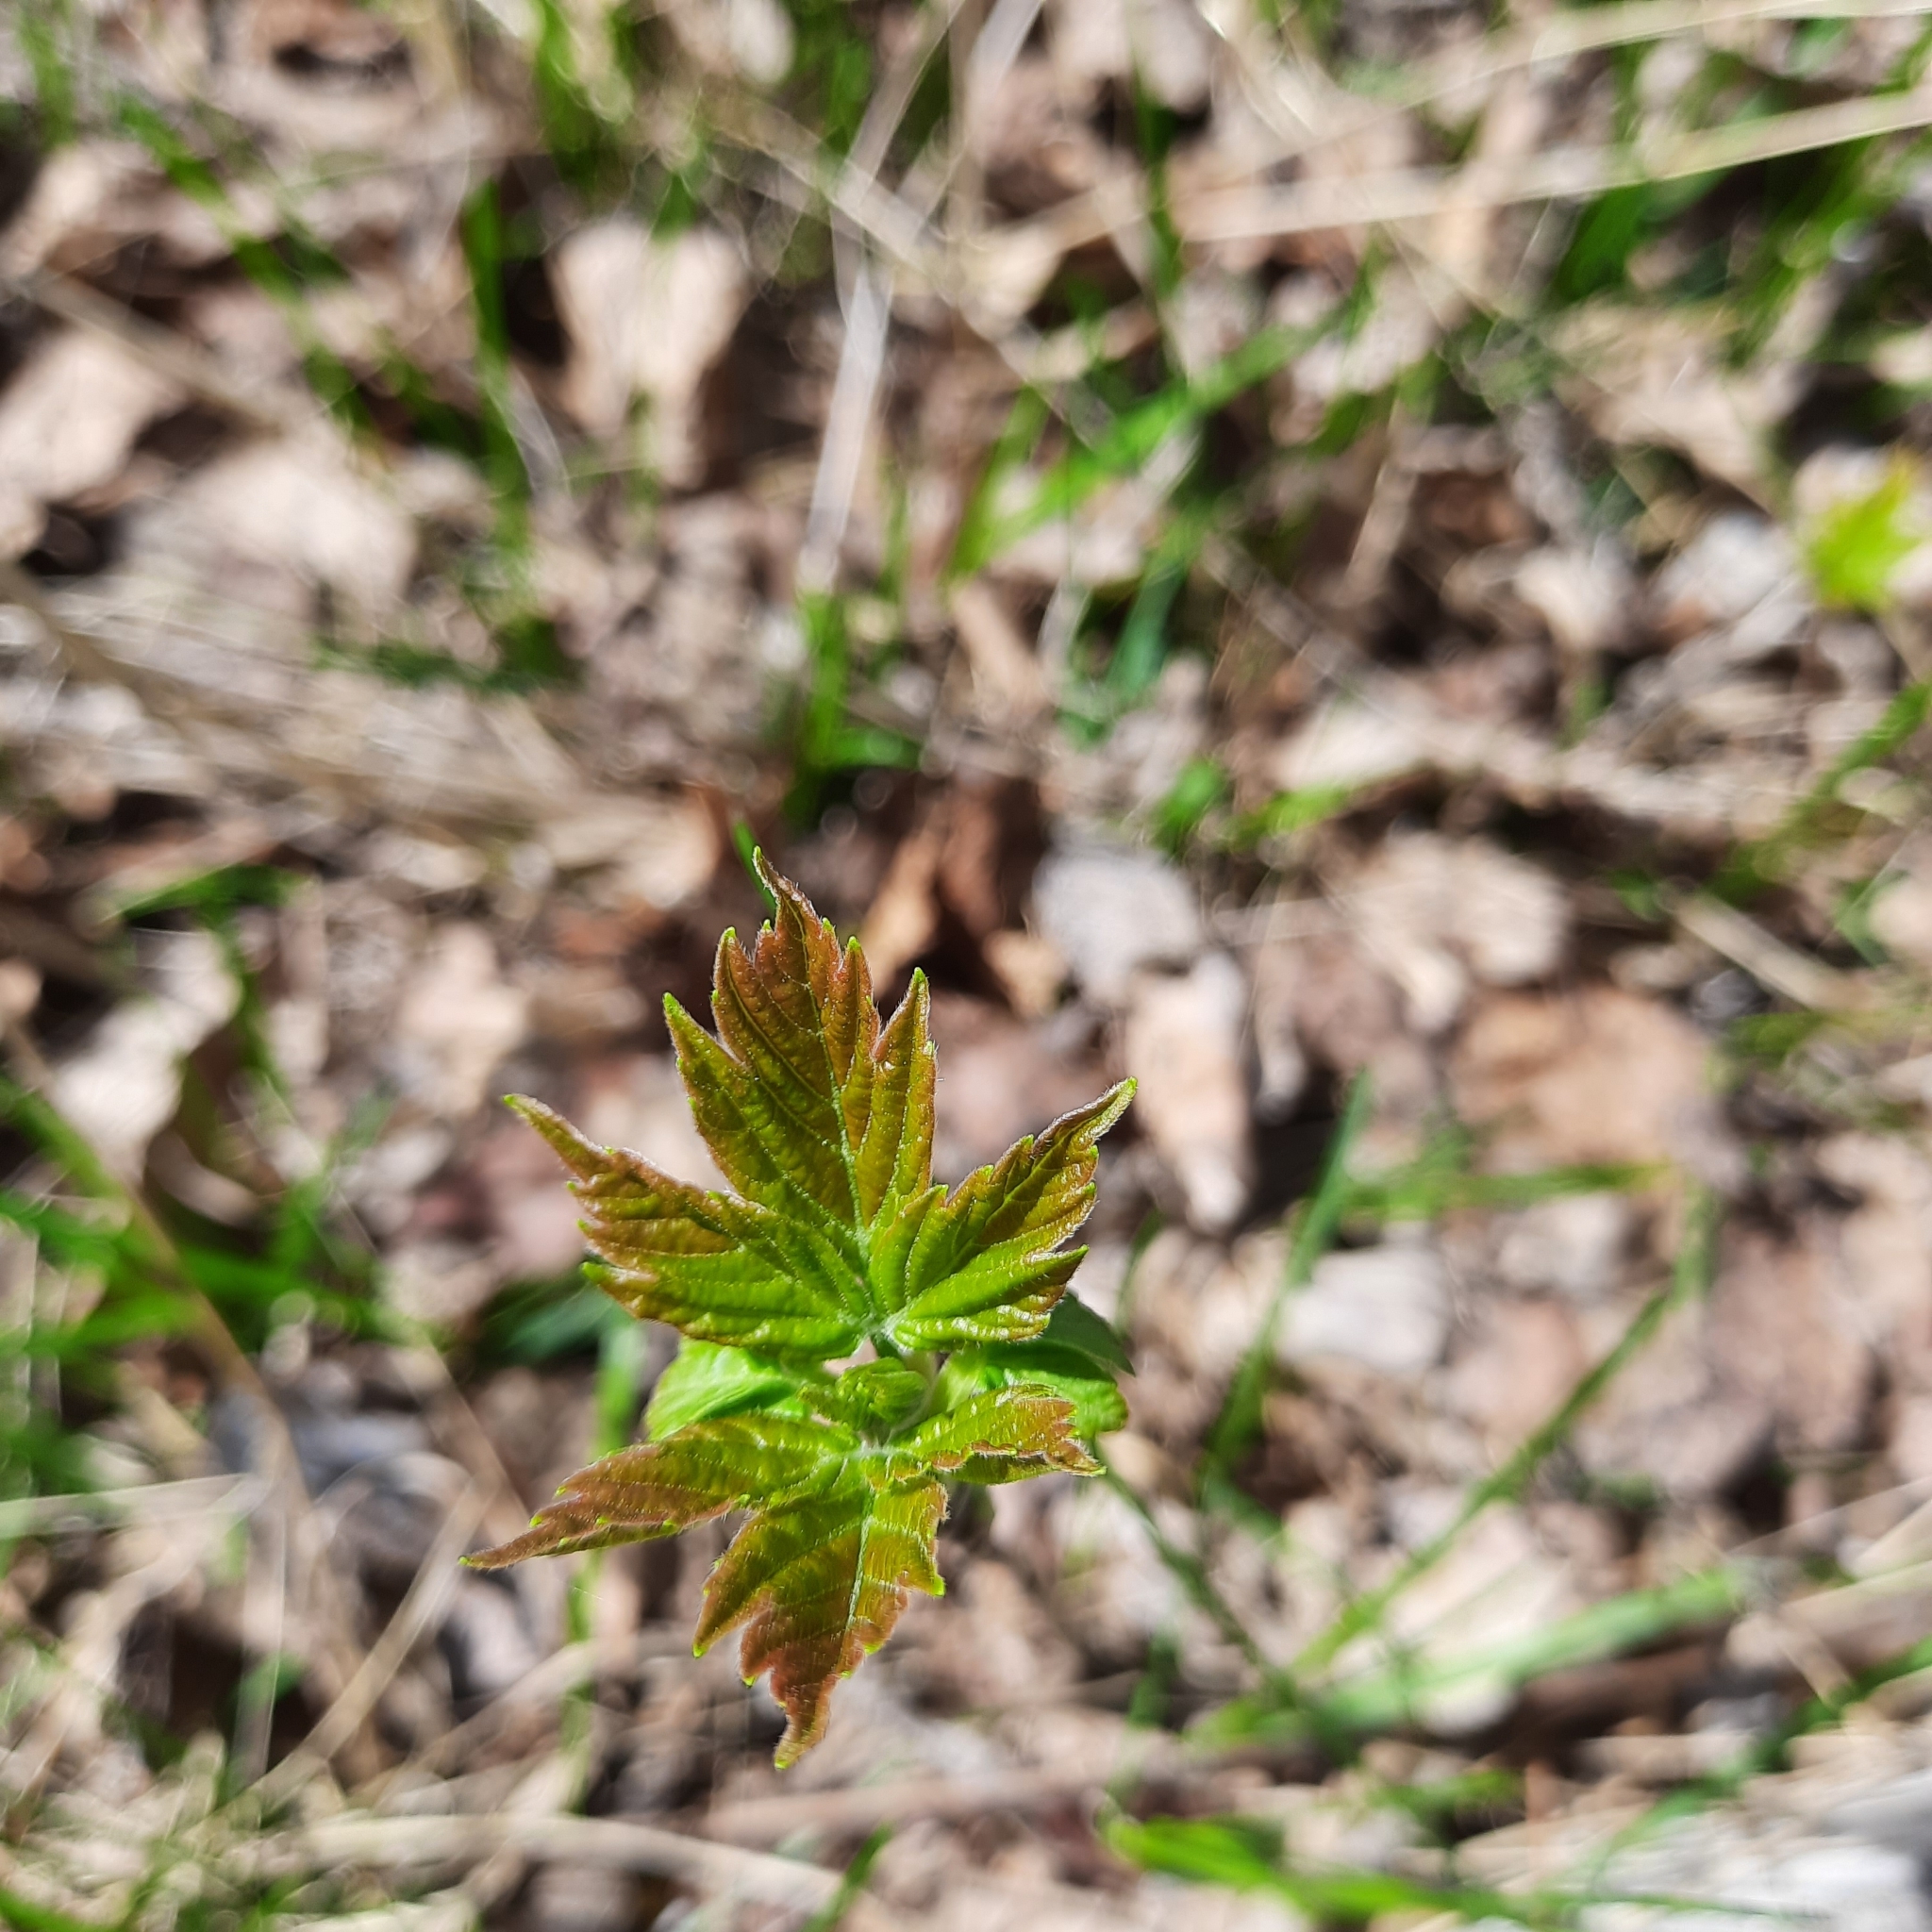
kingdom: Plantae
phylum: Tracheophyta
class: Magnoliopsida
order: Sapindales
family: Sapindaceae
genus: Acer
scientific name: Acer negundo
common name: Ashleaf maple
